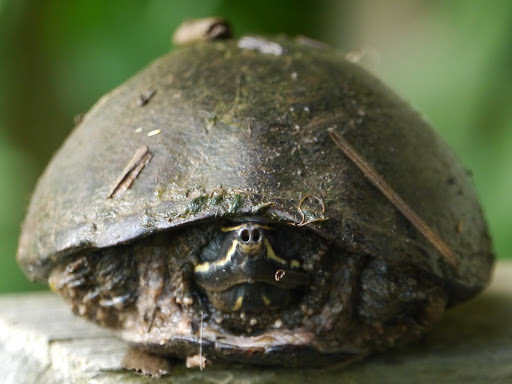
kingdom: Animalia
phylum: Chordata
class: Testudines
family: Kinosternidae
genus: Sternotherus
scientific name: Sternotherus odoratus
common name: Common musk turtle
